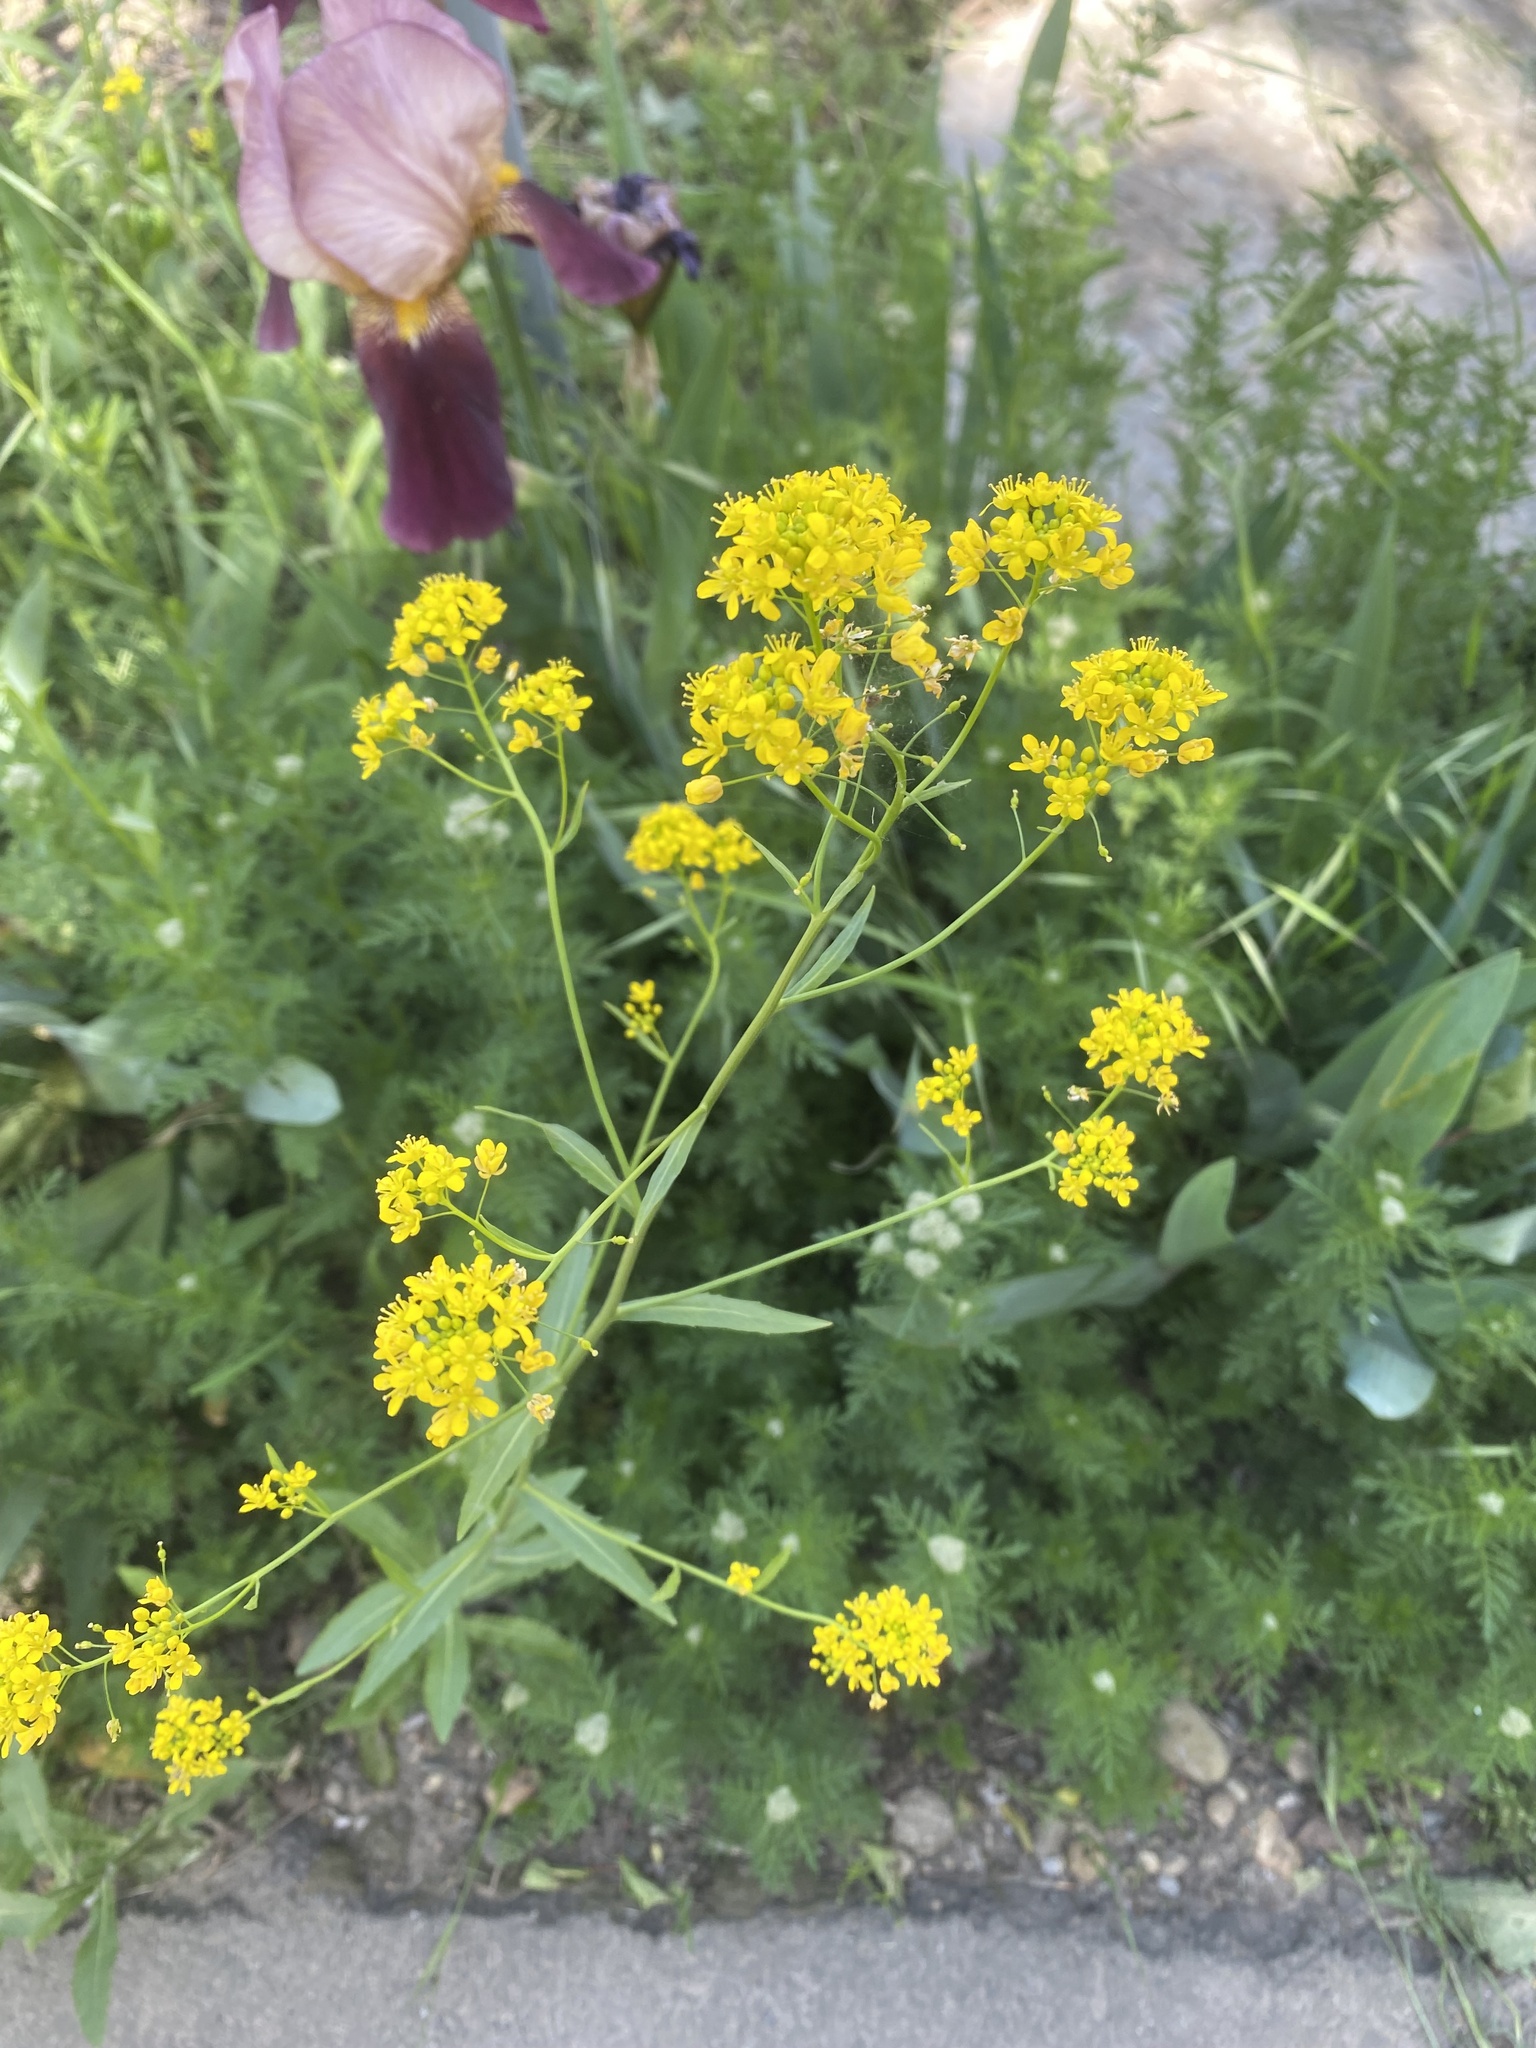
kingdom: Plantae
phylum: Tracheophyta
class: Magnoliopsida
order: Brassicales
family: Brassicaceae
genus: Rorippa
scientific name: Rorippa austriaca
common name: Austrian yellow-cress
